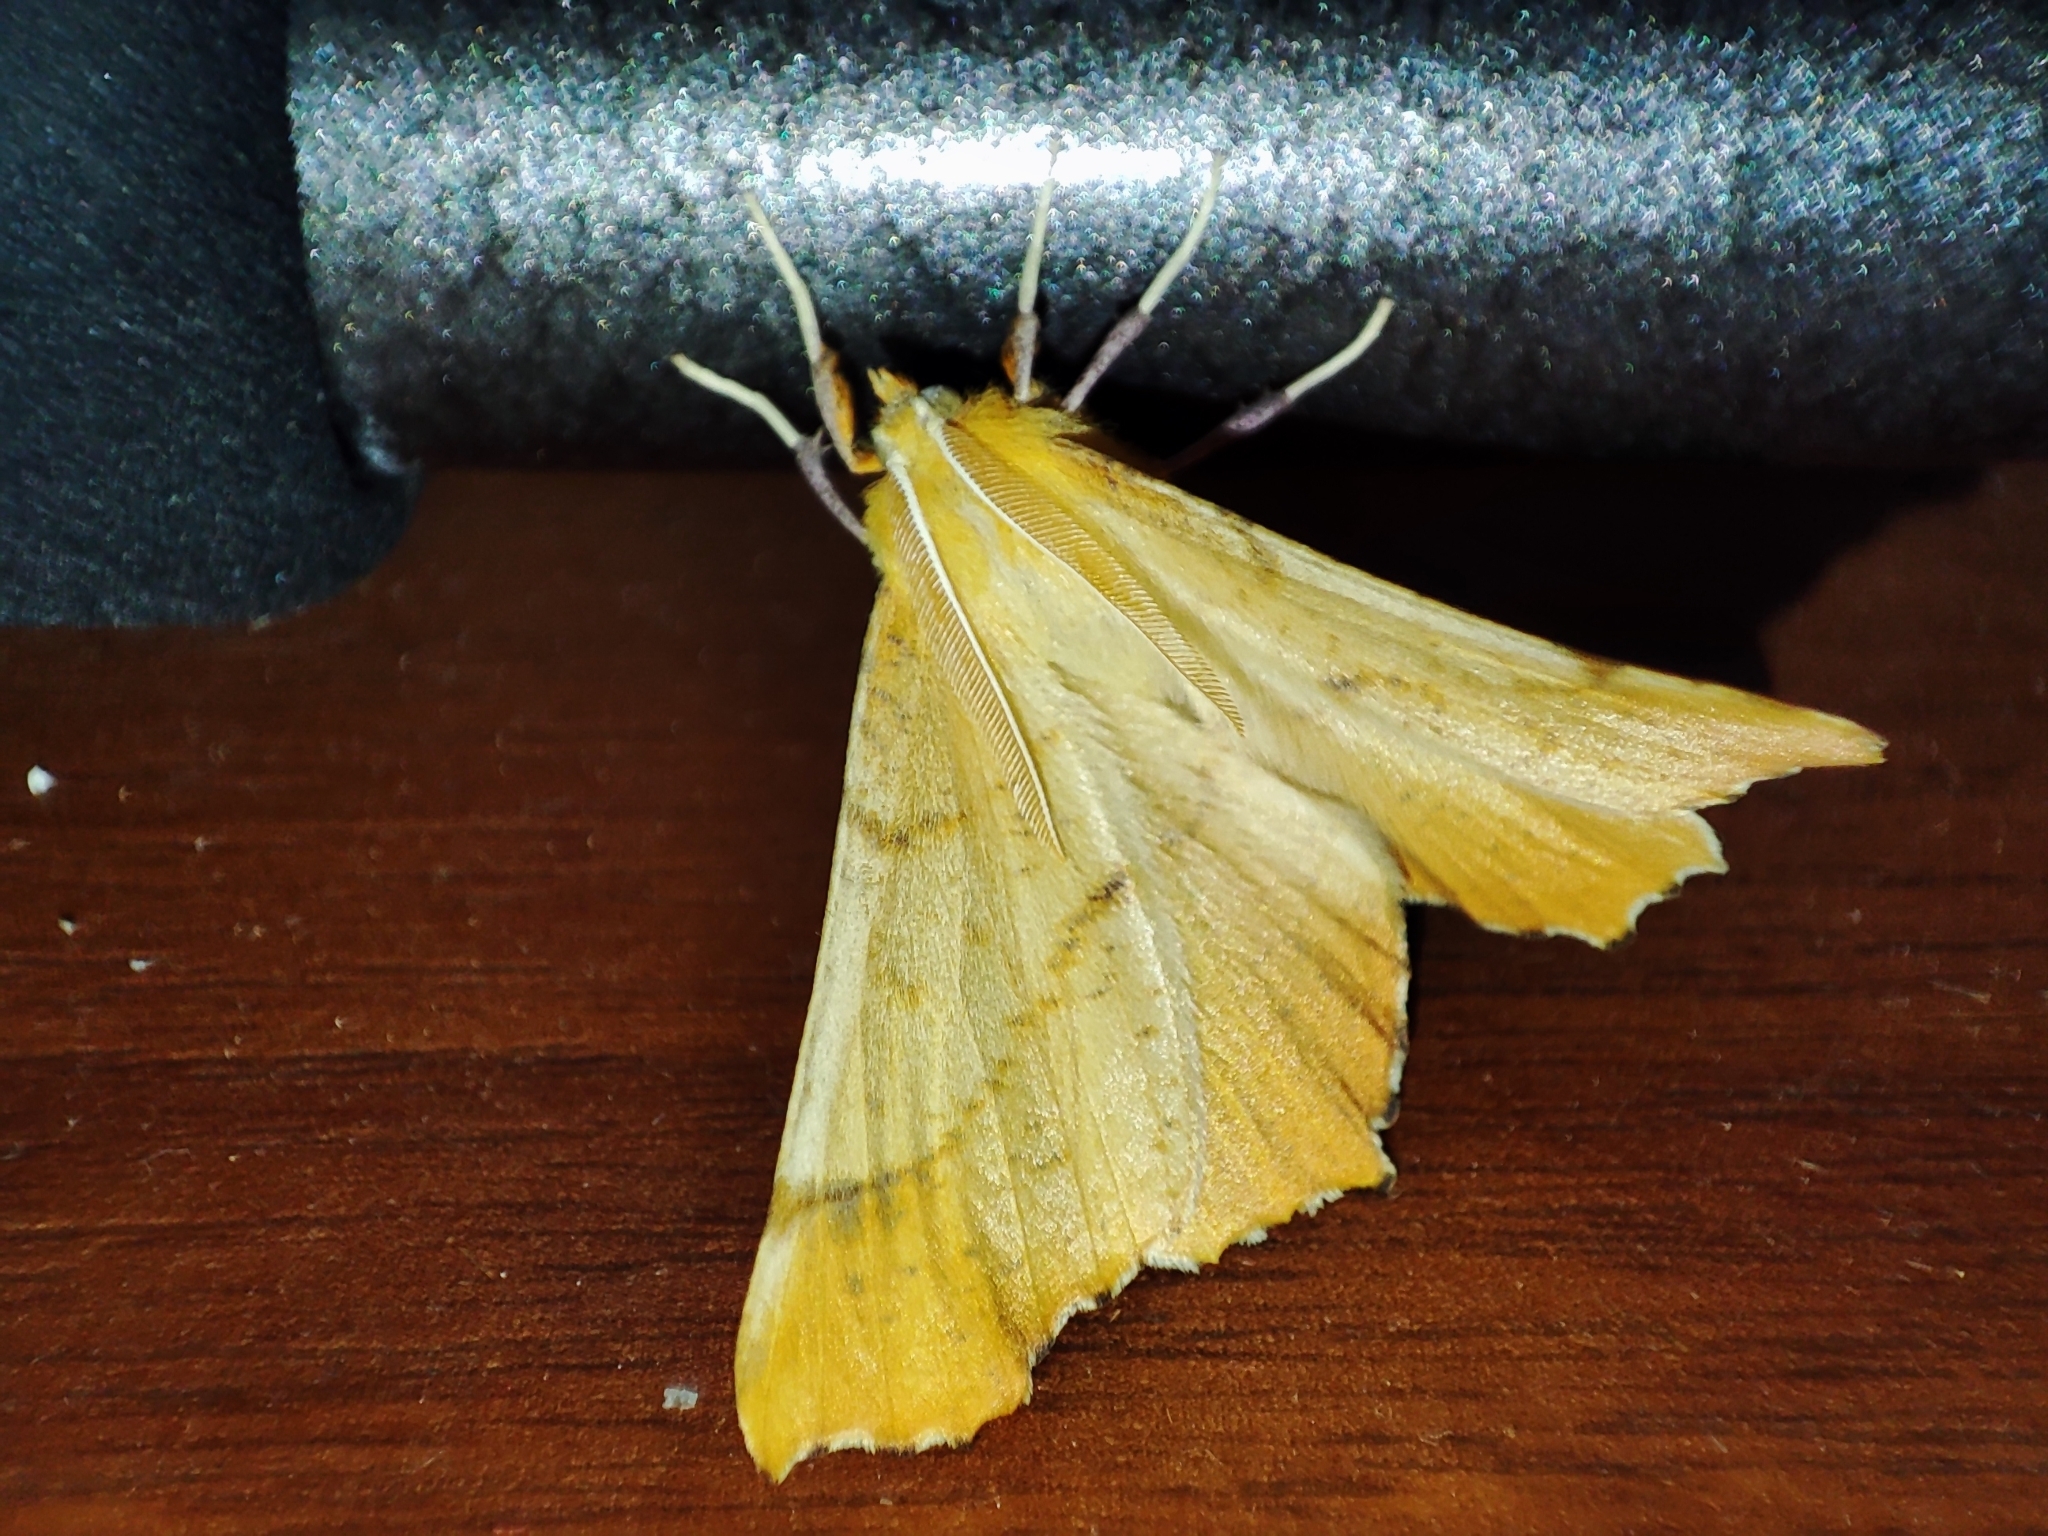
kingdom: Animalia
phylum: Arthropoda
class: Insecta
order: Lepidoptera
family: Geometridae
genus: Ennomos
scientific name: Ennomos autumnaria
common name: Large thorn
